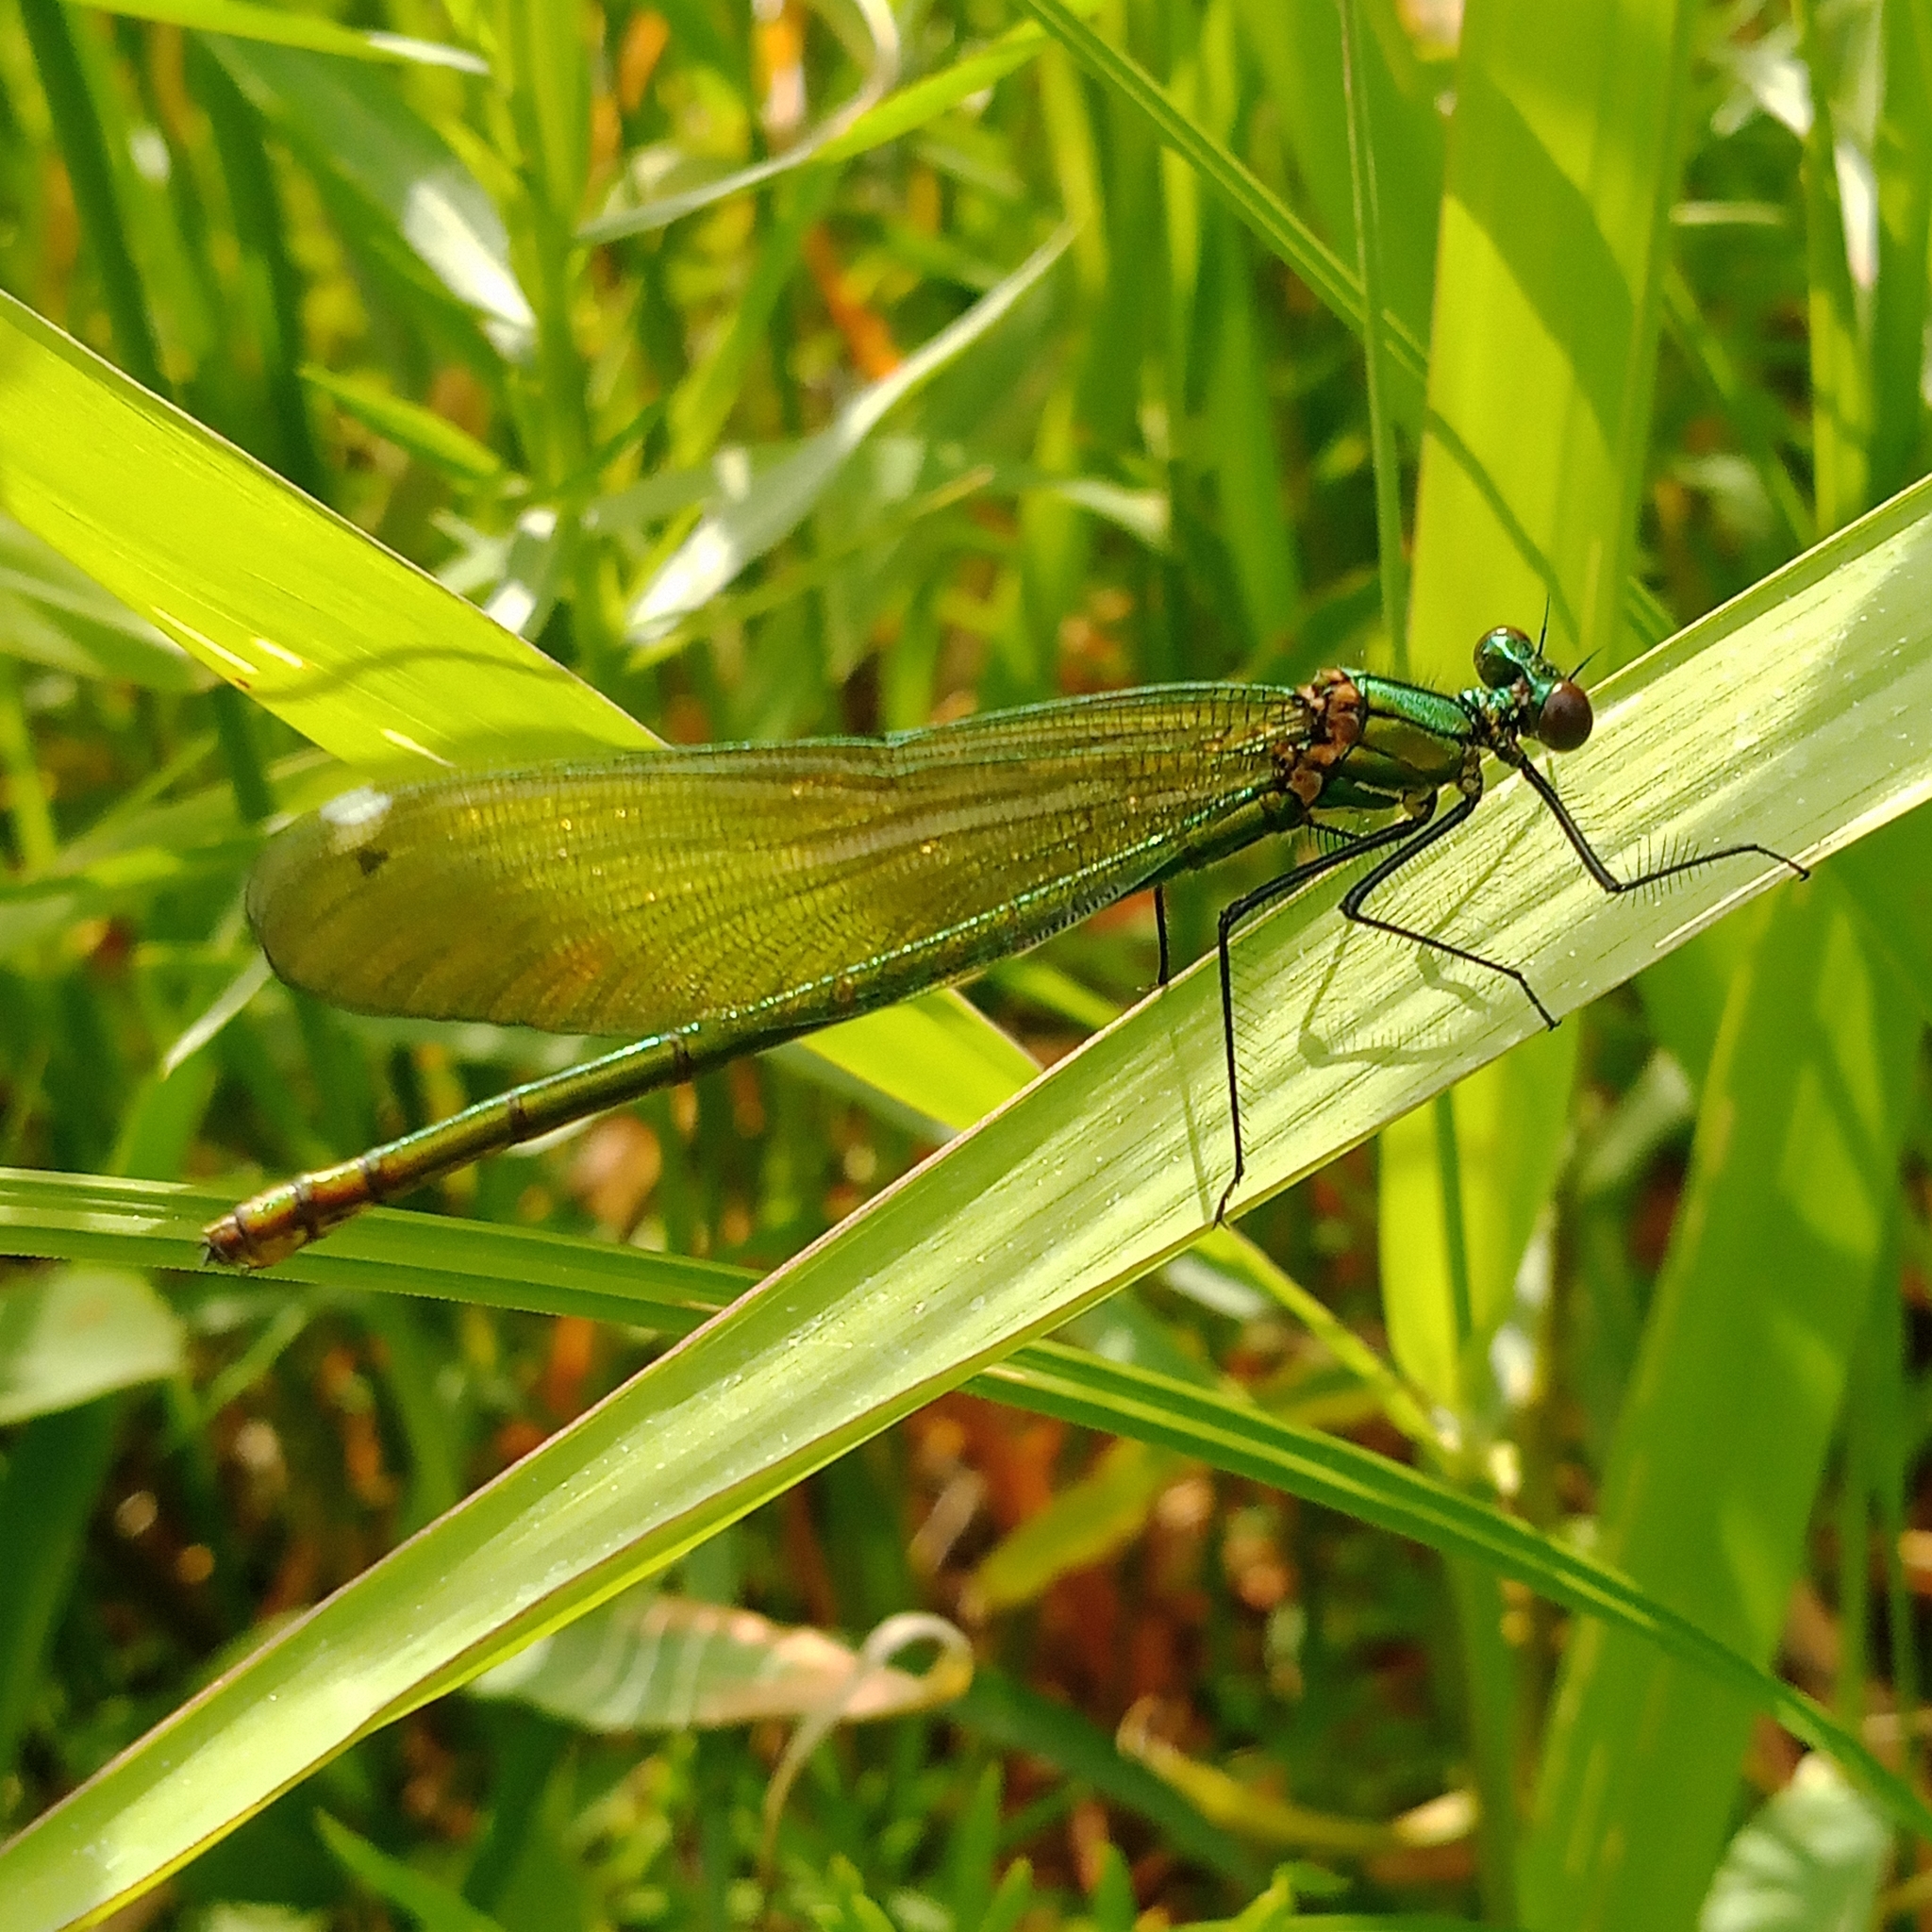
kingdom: Animalia
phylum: Arthropoda
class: Insecta
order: Odonata
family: Calopterygidae
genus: Calopteryx
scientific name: Calopteryx splendens
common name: Banded demoiselle
